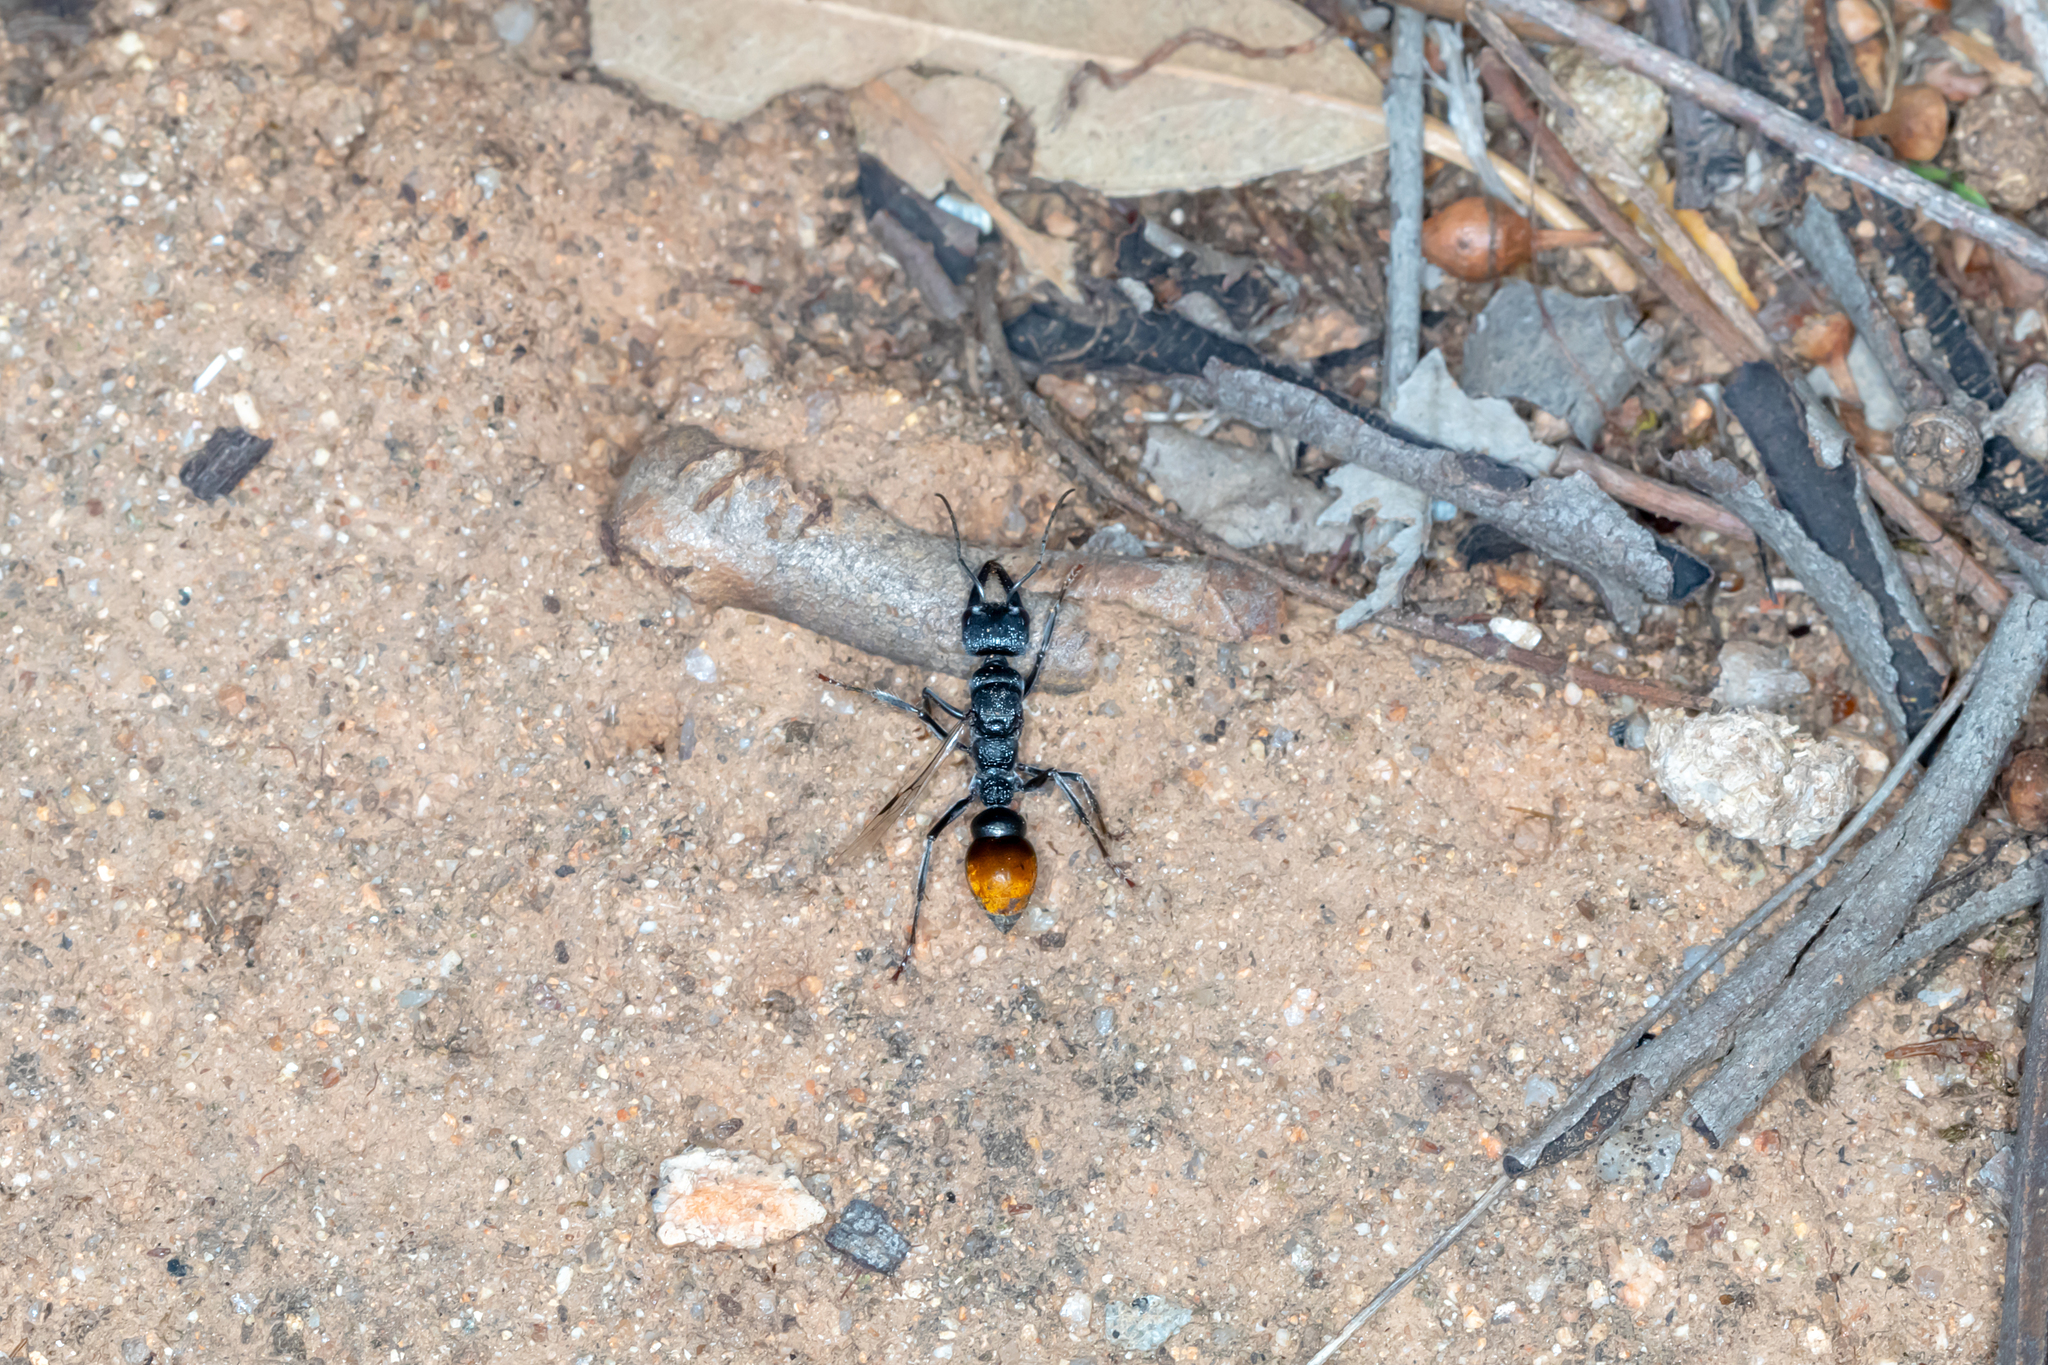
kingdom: Animalia
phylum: Arthropoda
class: Insecta
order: Hymenoptera
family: Formicidae
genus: Myrmecia
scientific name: Myrmecia mandibularis
